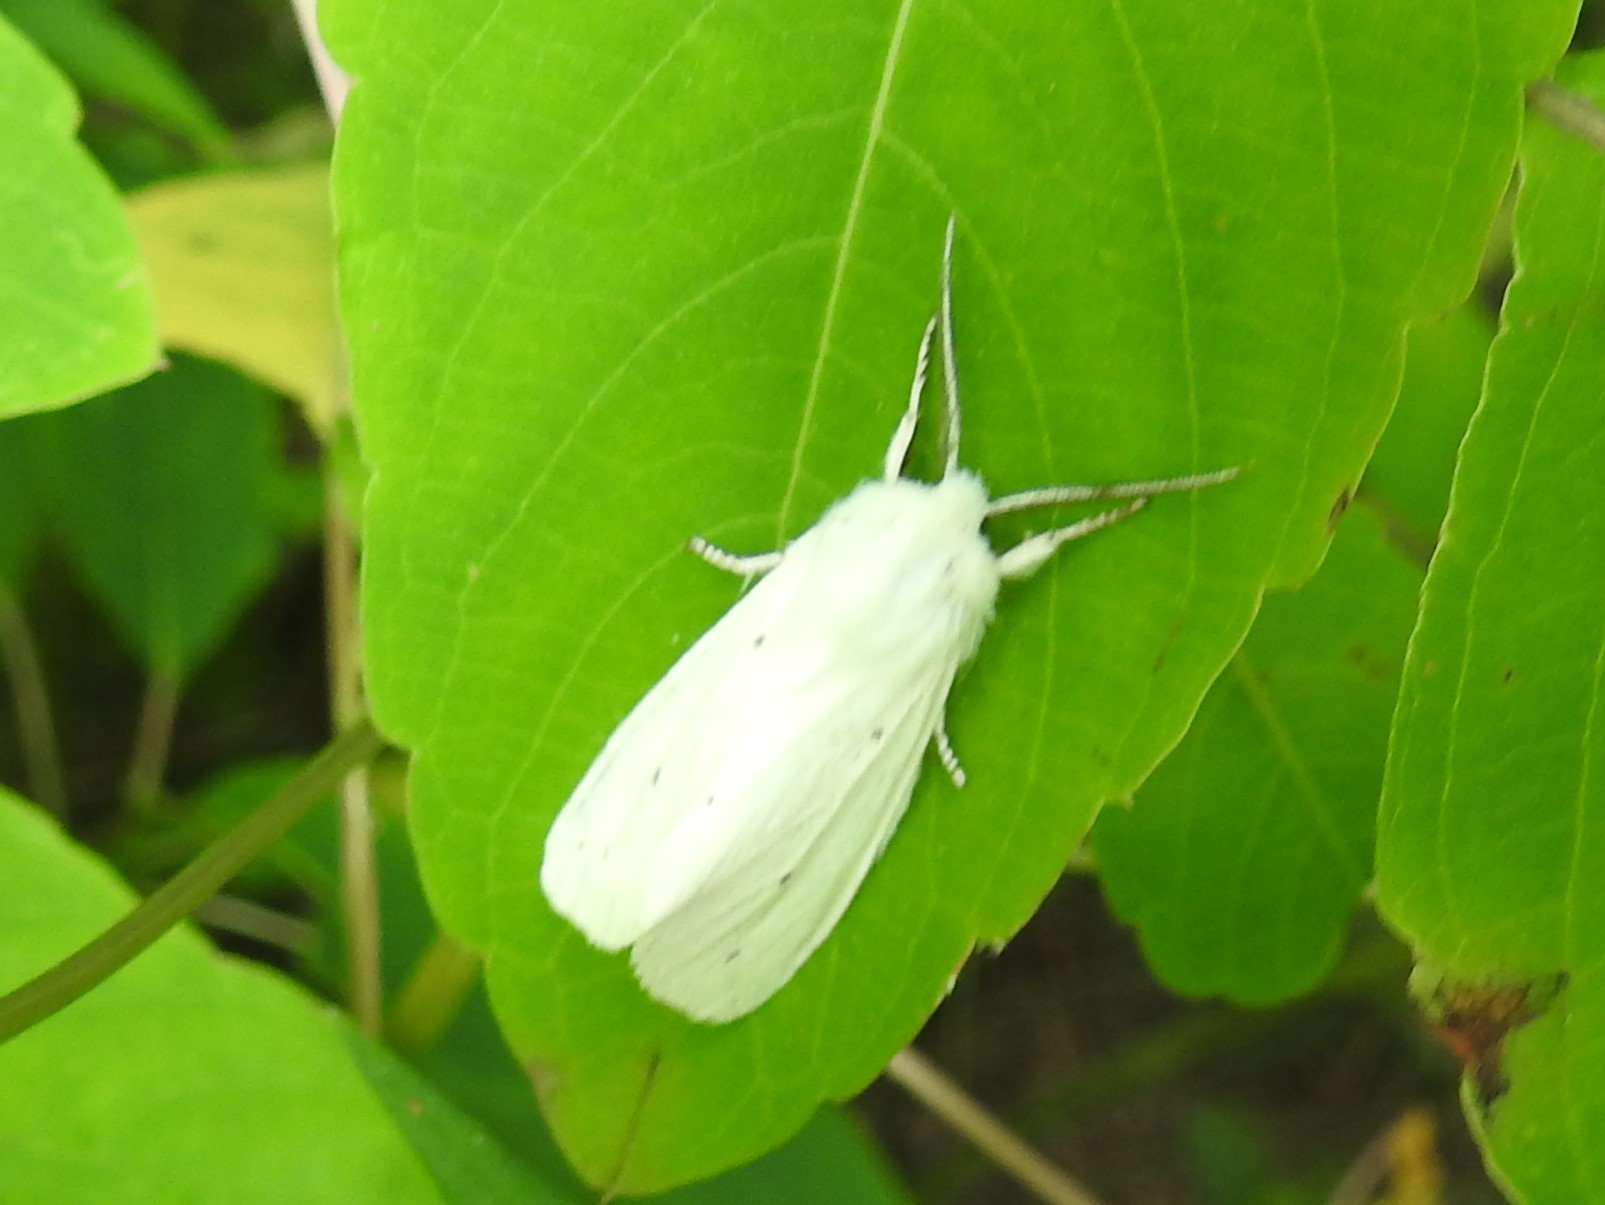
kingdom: Animalia
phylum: Arthropoda
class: Insecta
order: Lepidoptera
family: Erebidae
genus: Spilosoma
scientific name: Spilosoma virginica
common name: Virginia tiger moth
